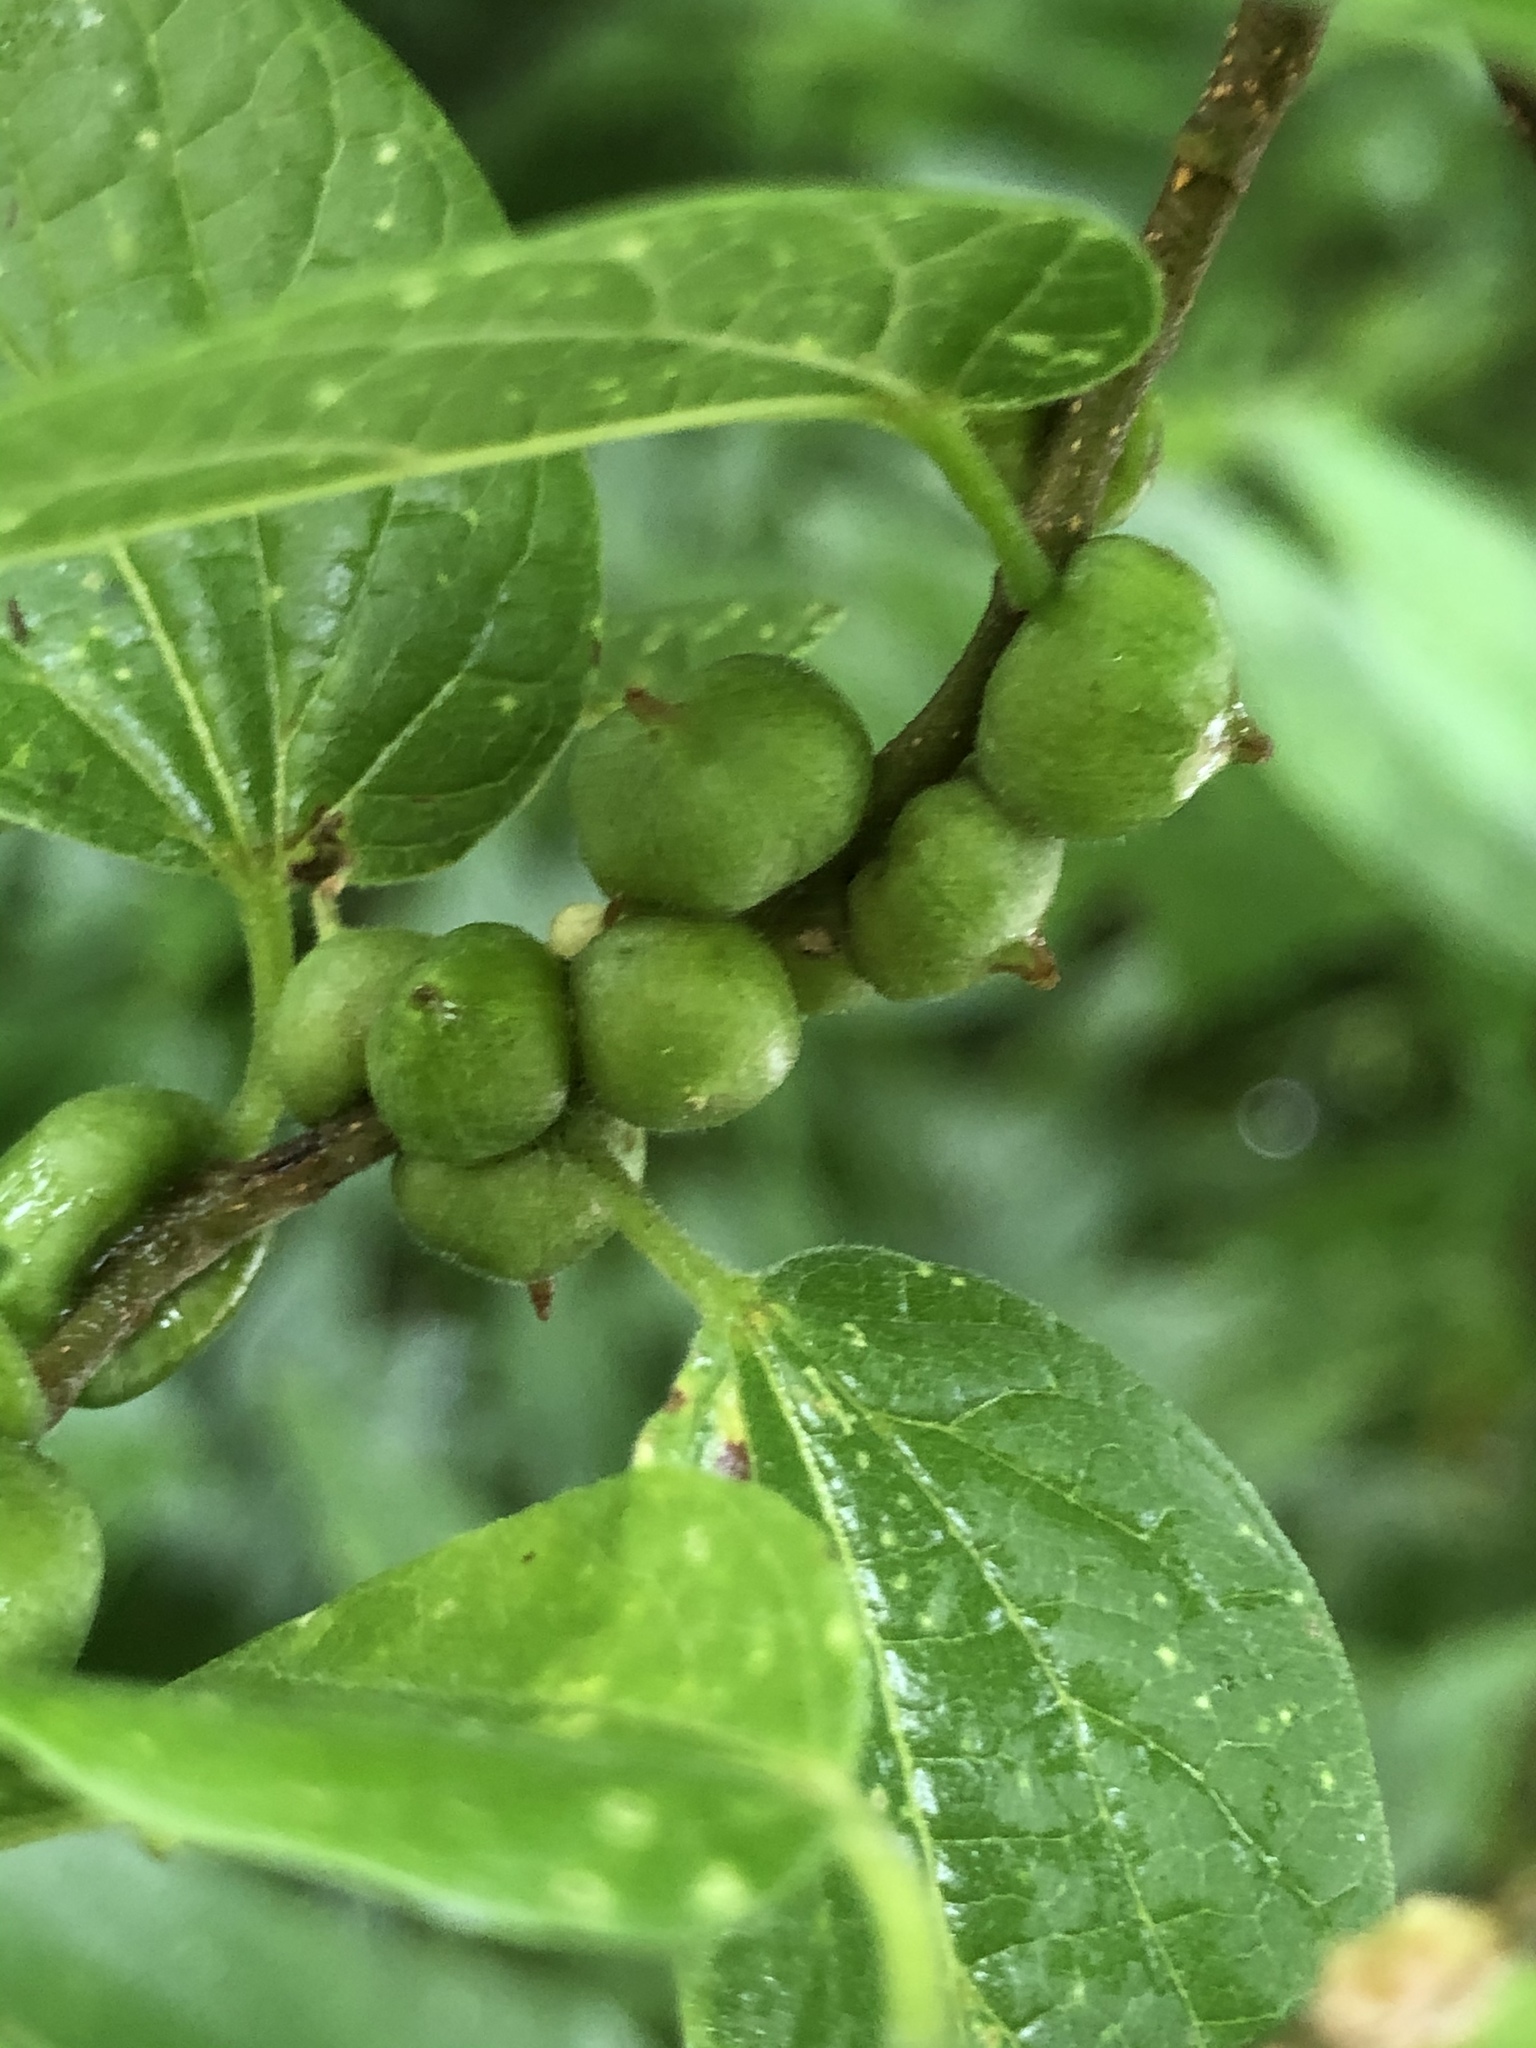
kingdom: Animalia
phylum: Arthropoda
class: Insecta
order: Diptera
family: Cecidomyiidae
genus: Celticecis
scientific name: Celticecis connata
